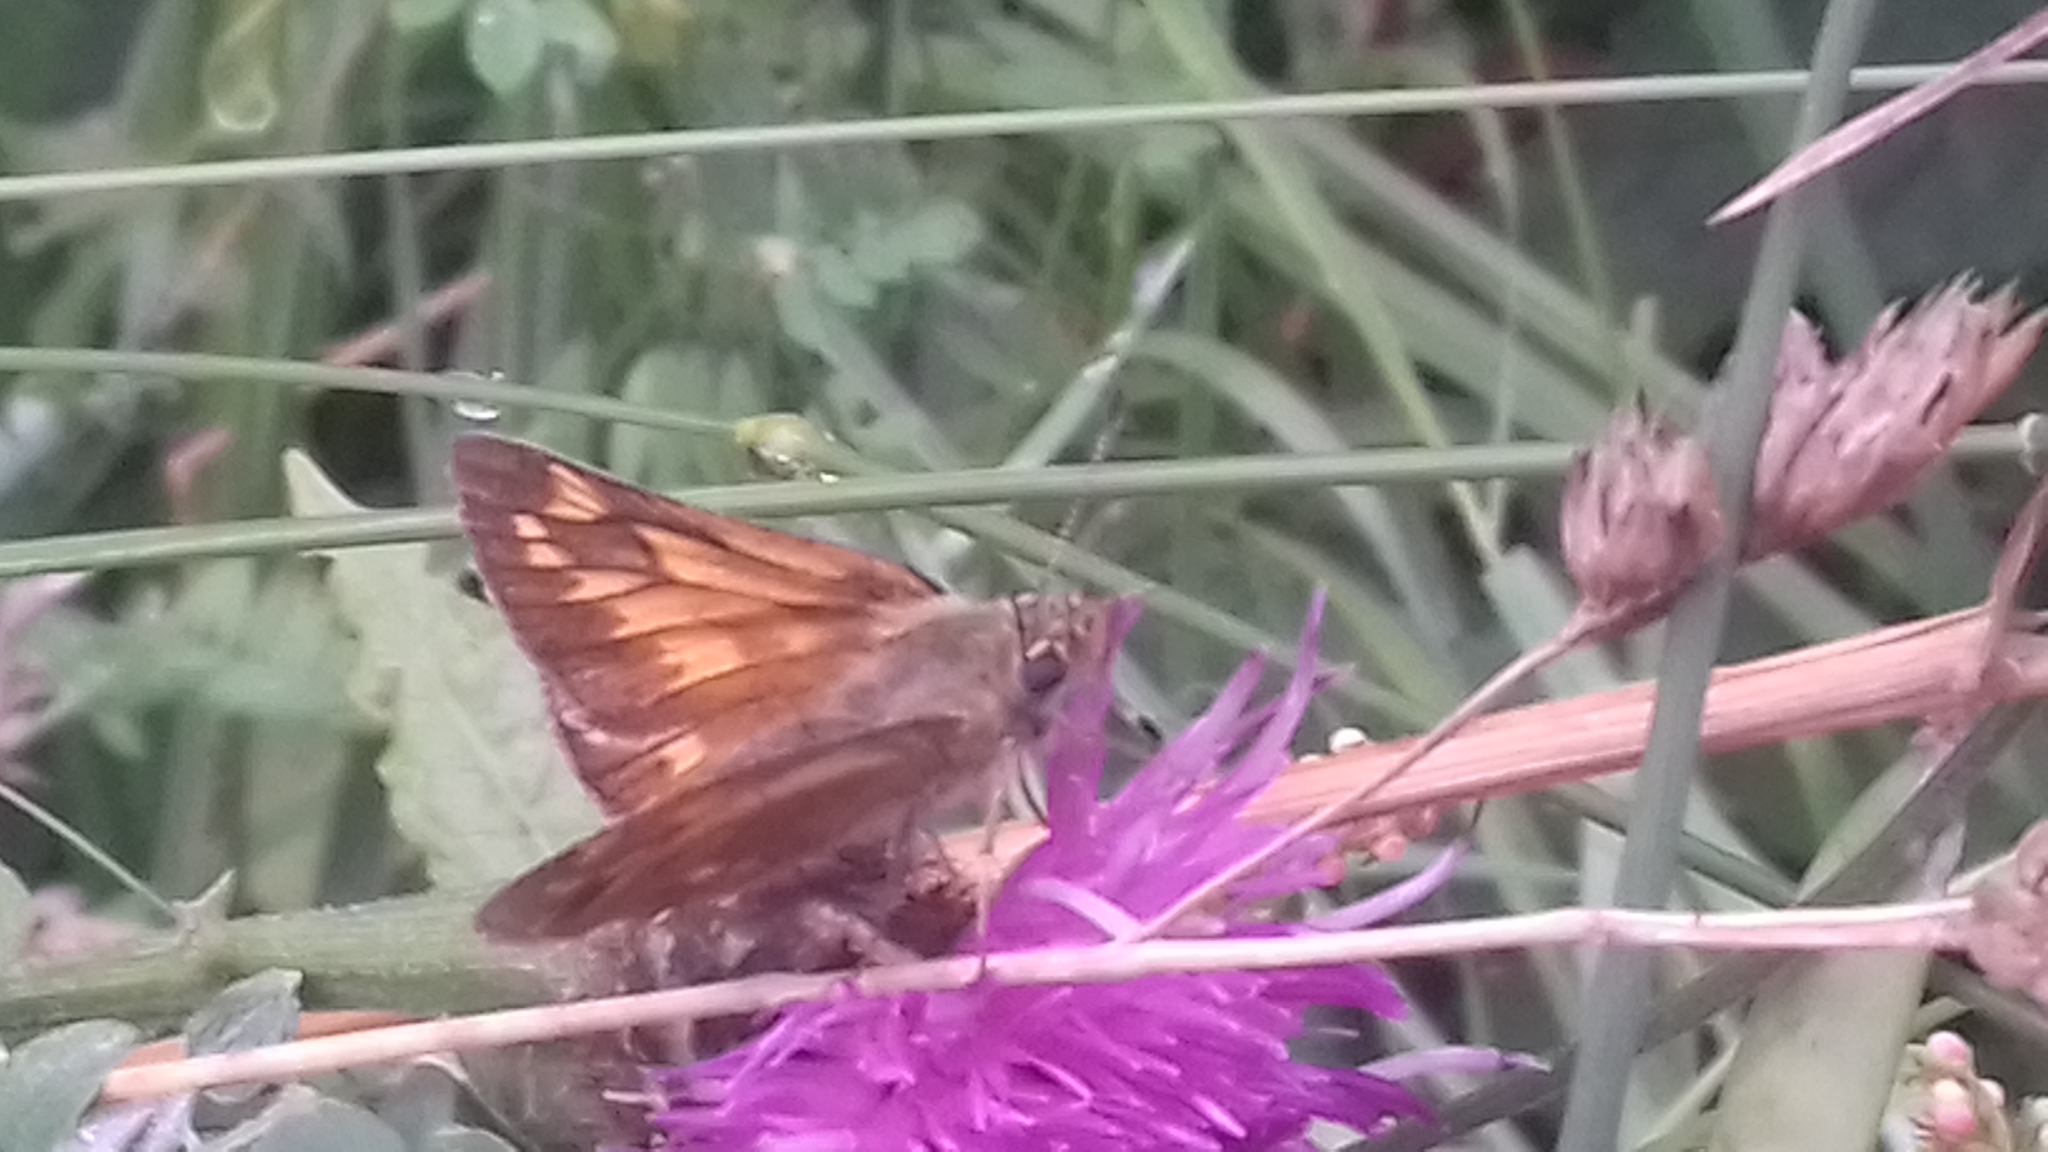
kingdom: Animalia
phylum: Arthropoda
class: Insecta
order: Lepidoptera
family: Hesperiidae
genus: Ochlodes
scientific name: Ochlodes venata
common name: Large skipper
